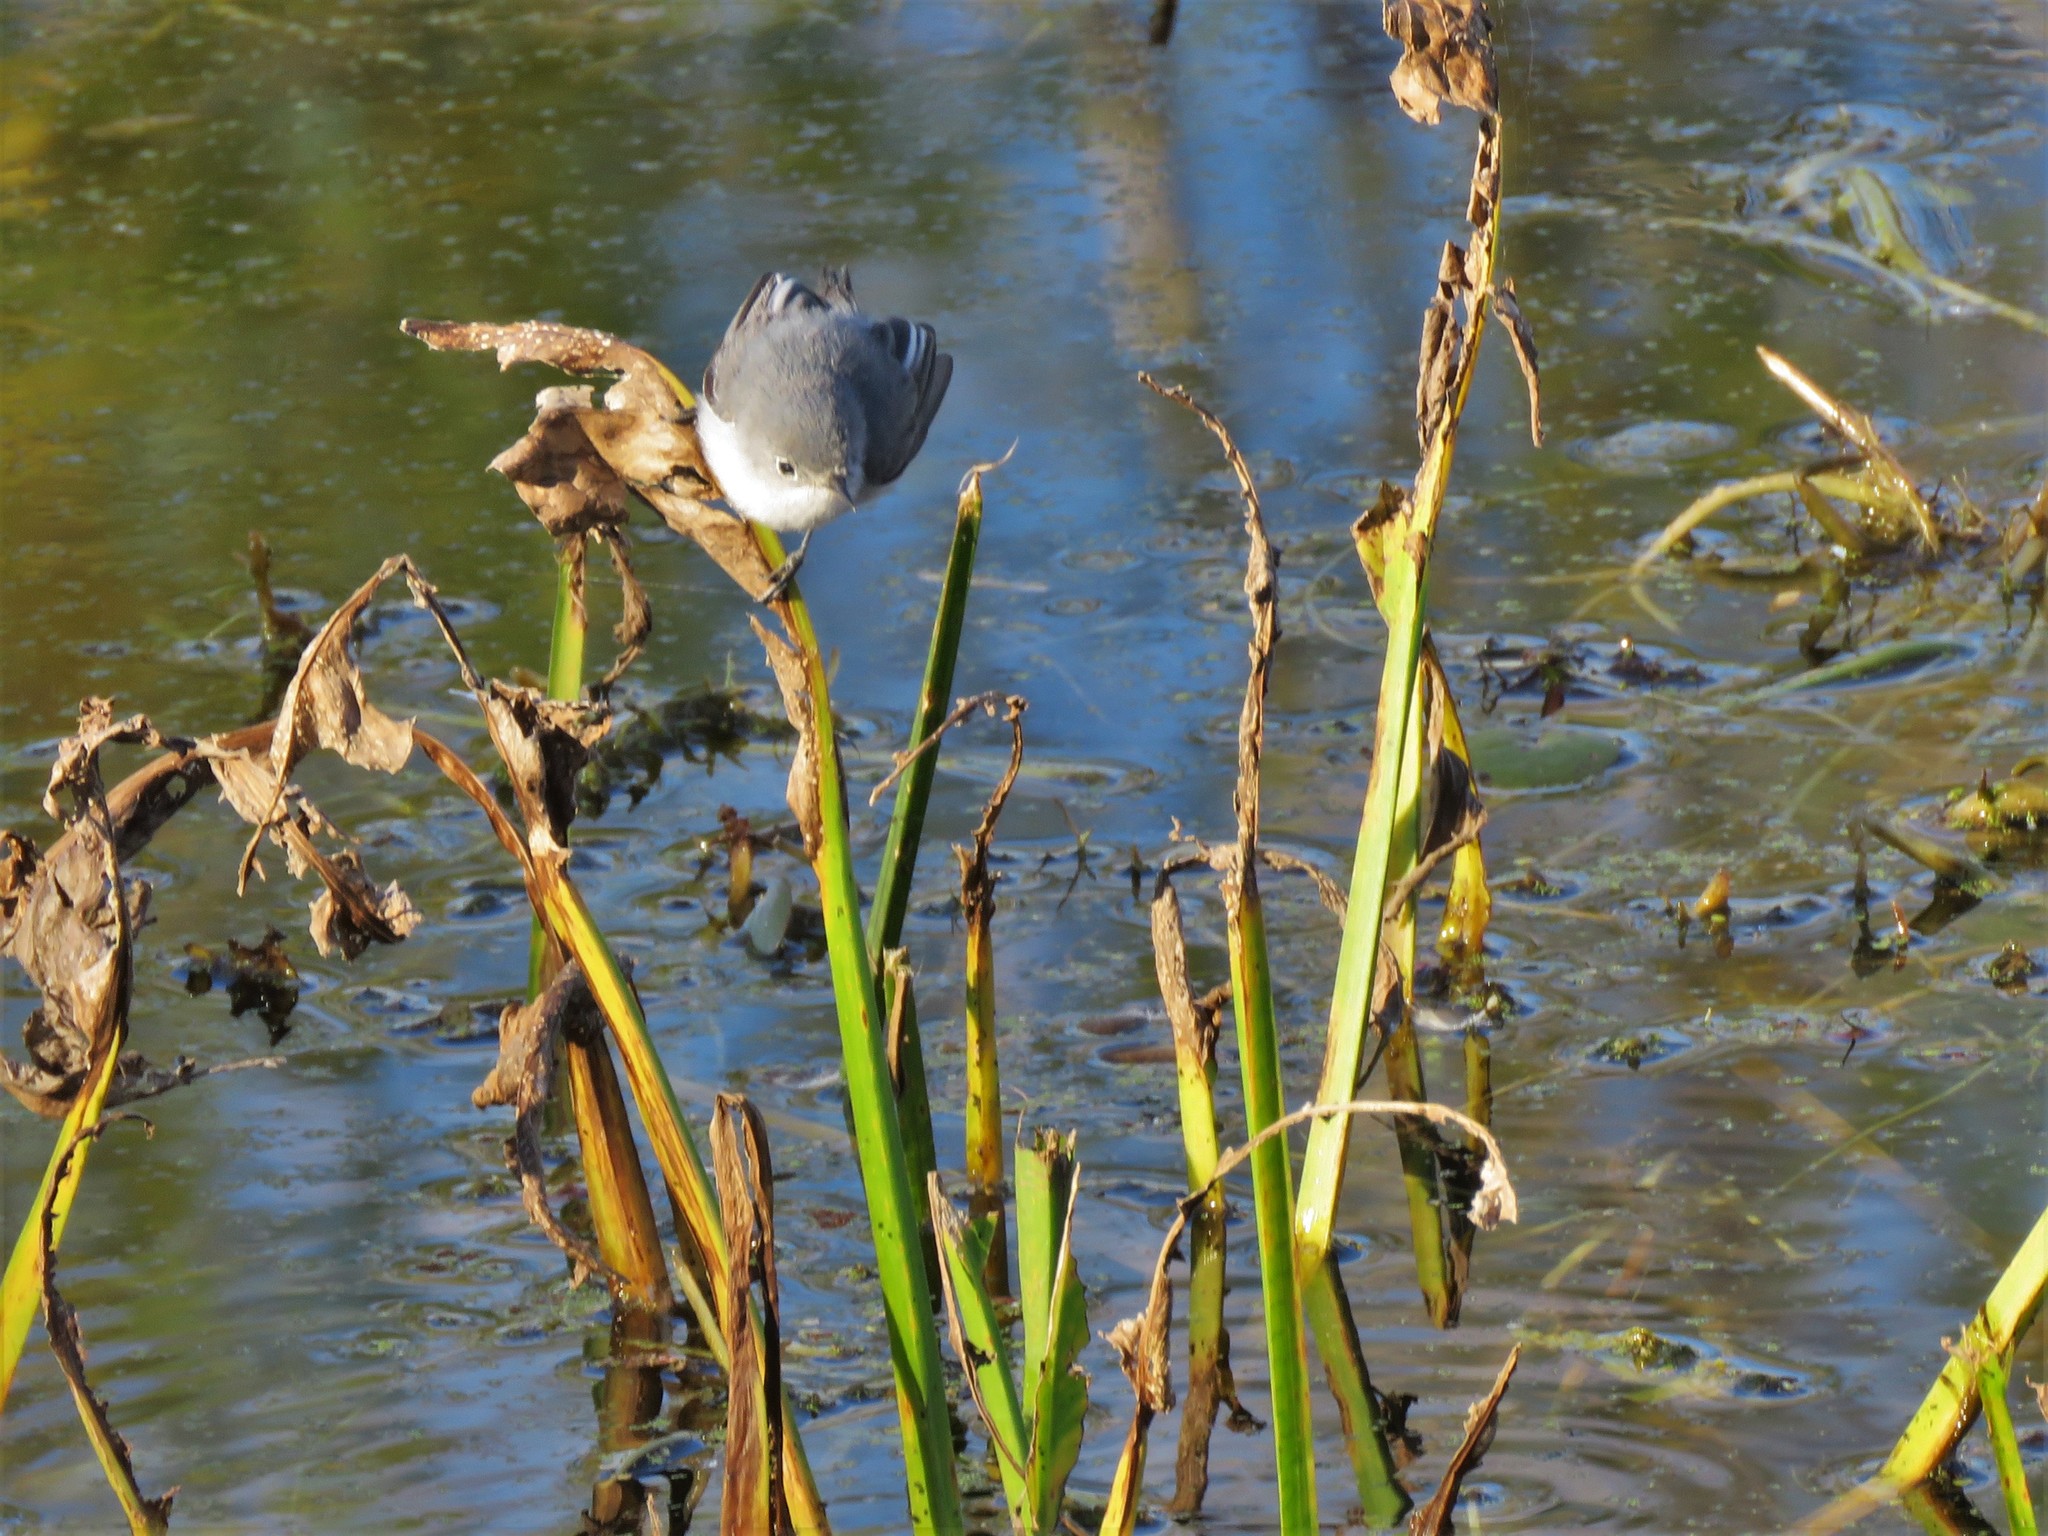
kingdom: Animalia
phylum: Chordata
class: Aves
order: Passeriformes
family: Polioptilidae
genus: Polioptila
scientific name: Polioptila caerulea
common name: Blue-gray gnatcatcher
